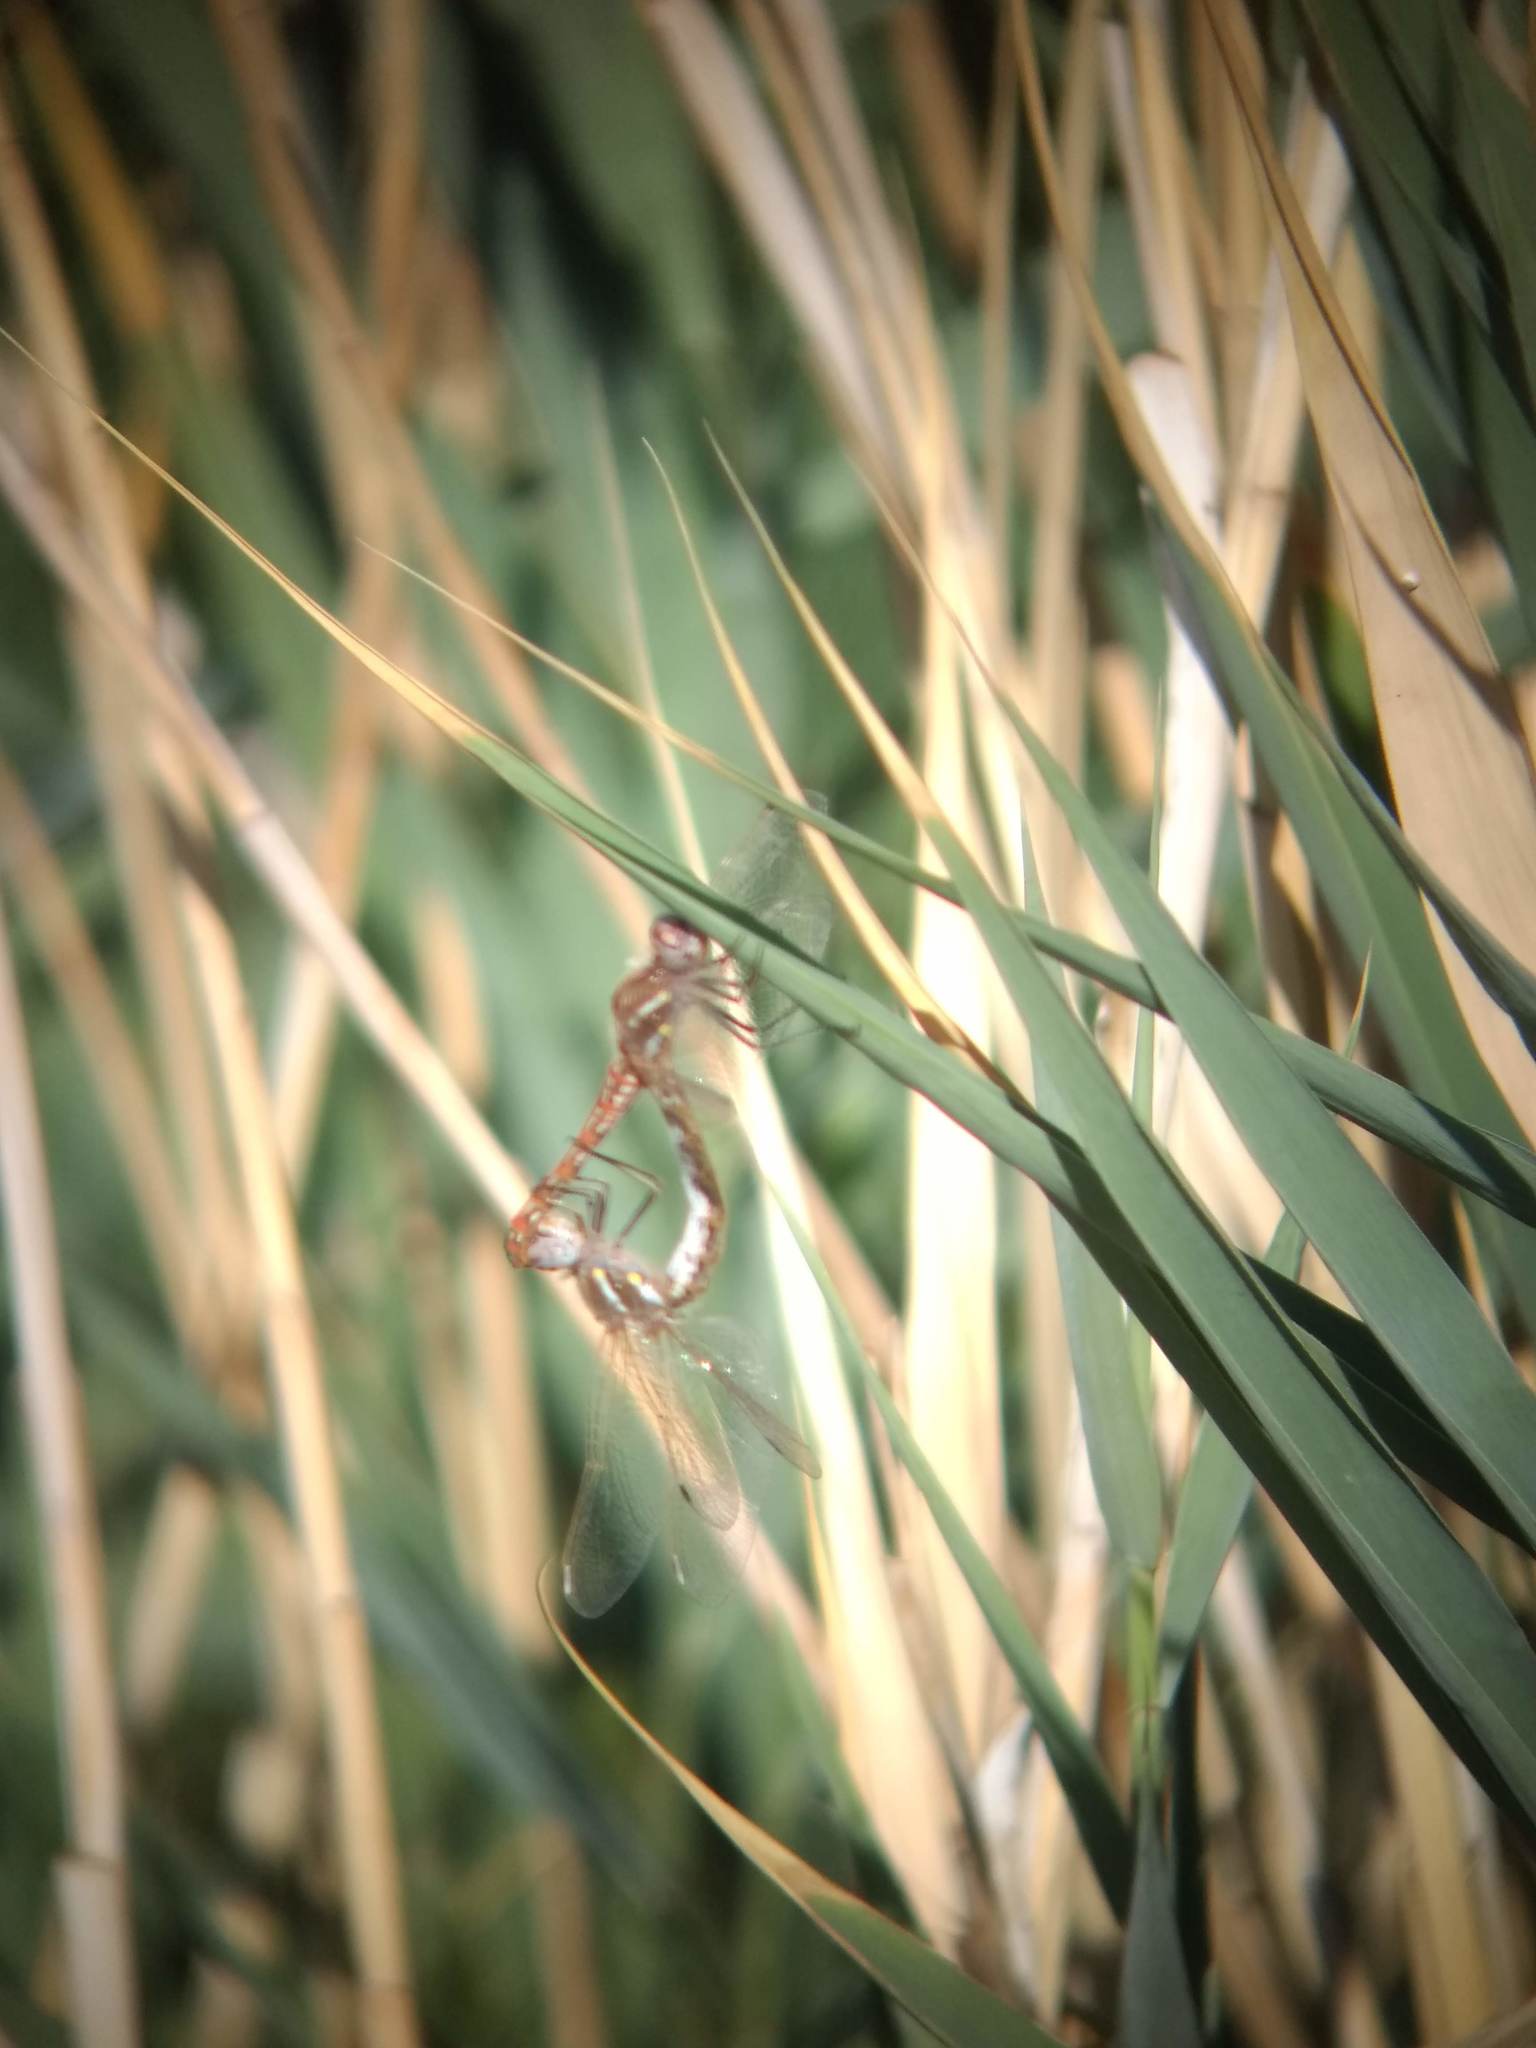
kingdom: Animalia
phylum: Arthropoda
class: Insecta
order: Odonata
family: Libellulidae
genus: Sympetrum
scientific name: Sympetrum corruptum
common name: Variegated meadowhawk
